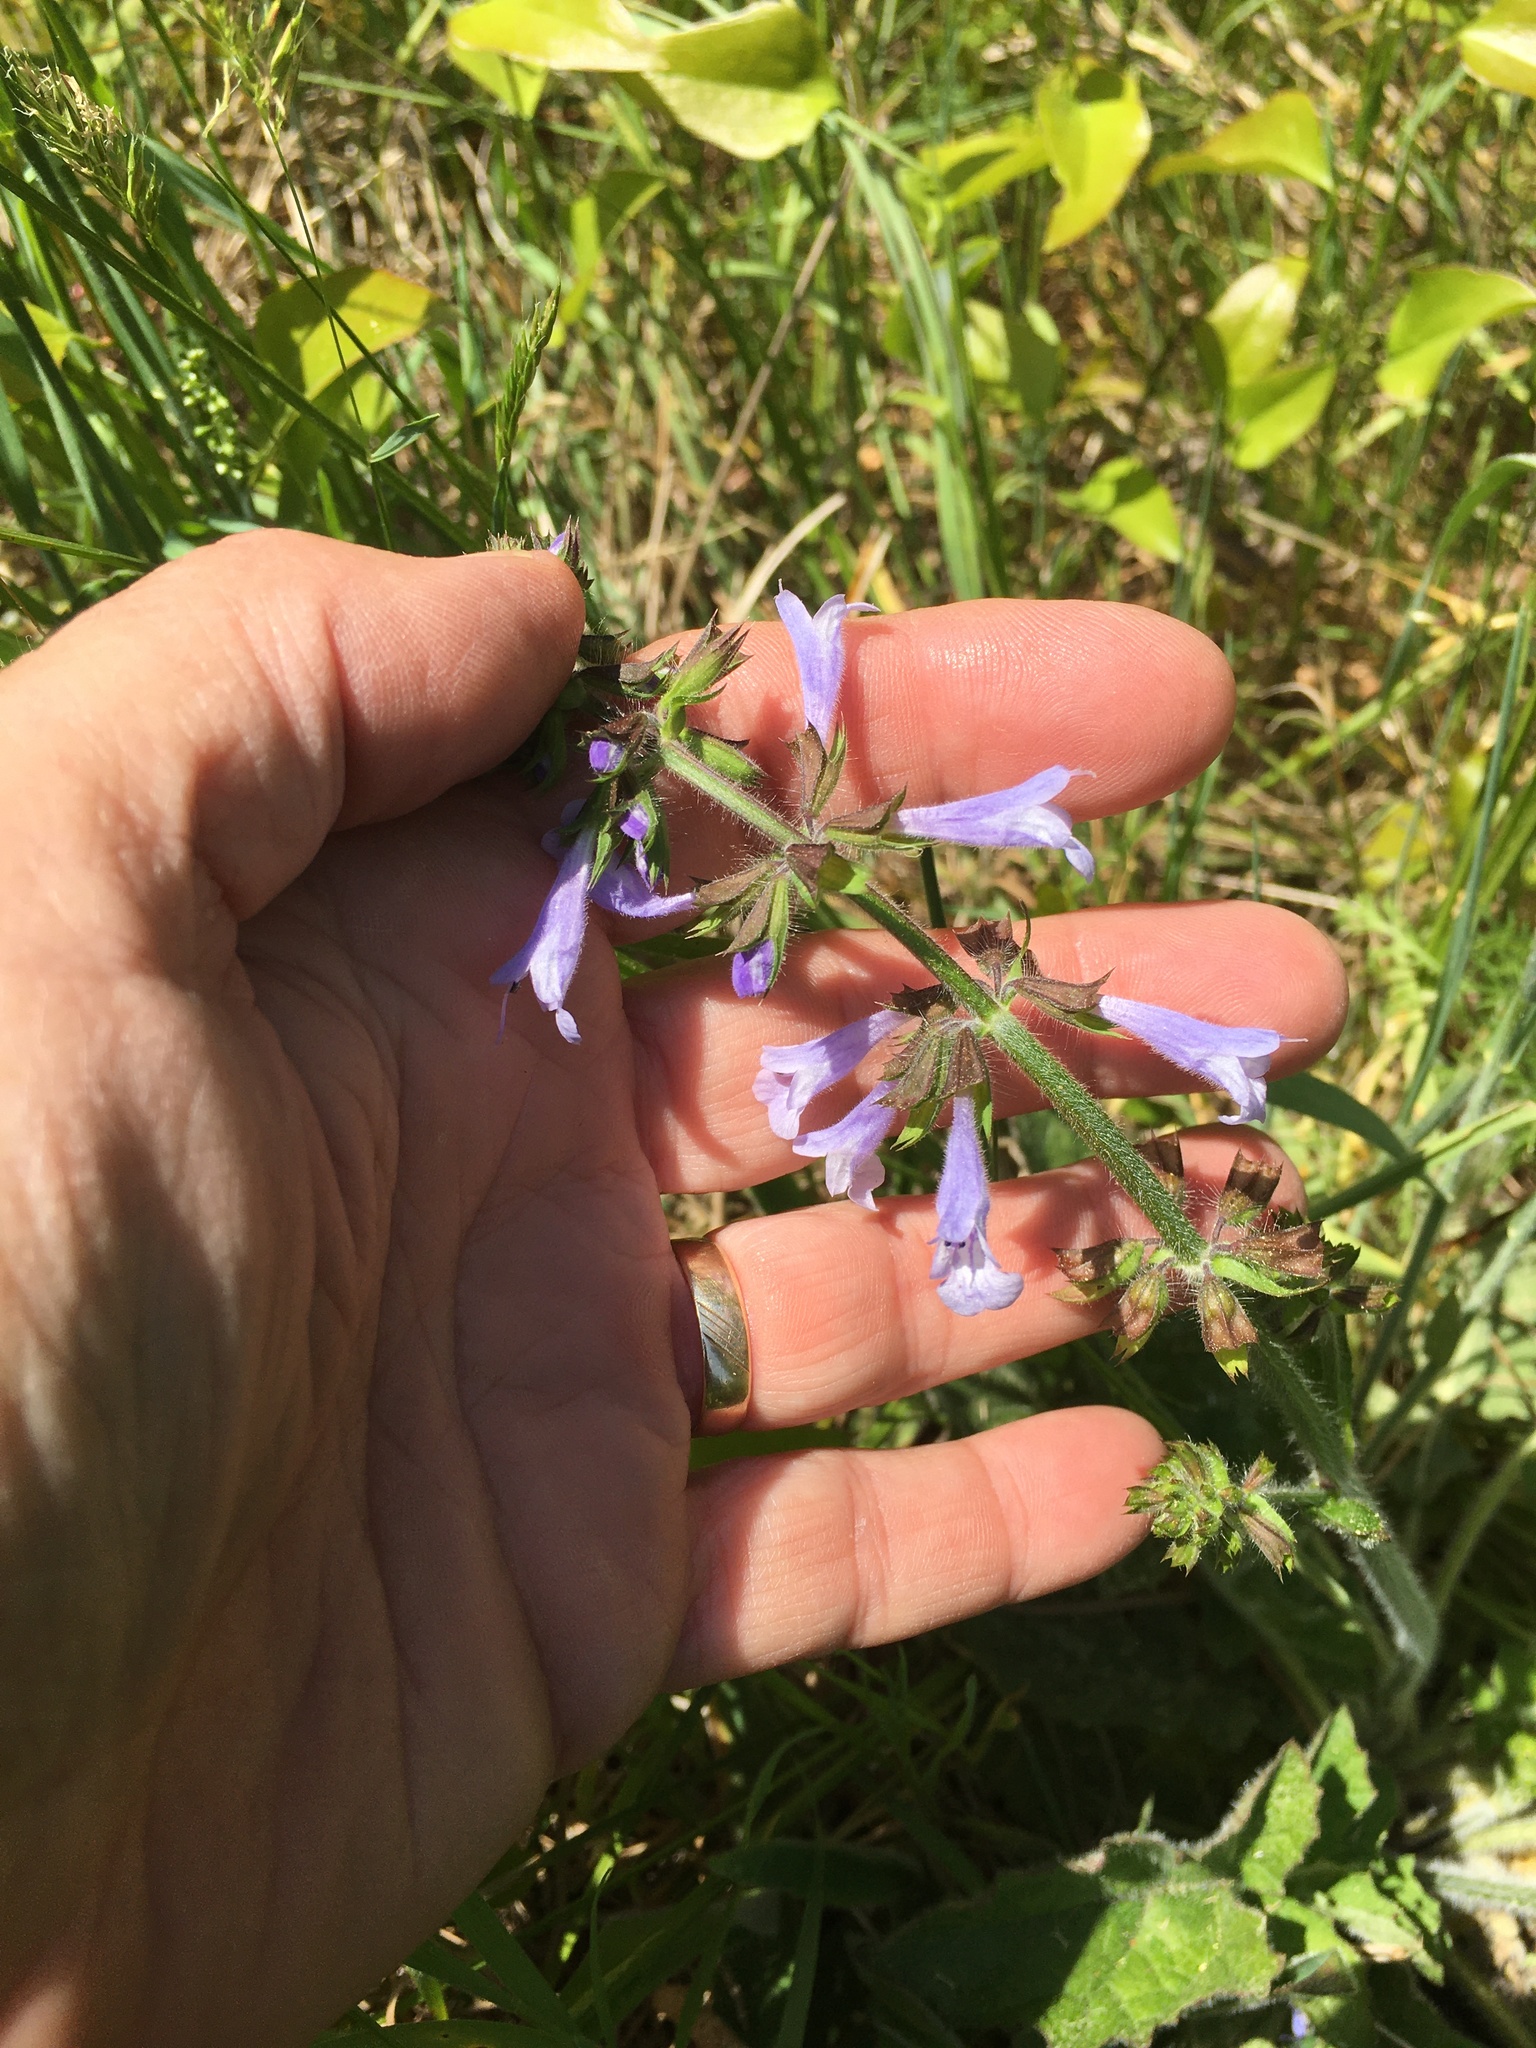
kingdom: Plantae
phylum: Tracheophyta
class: Magnoliopsida
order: Lamiales
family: Lamiaceae
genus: Salvia
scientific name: Salvia lyrata
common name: Cancerweed
